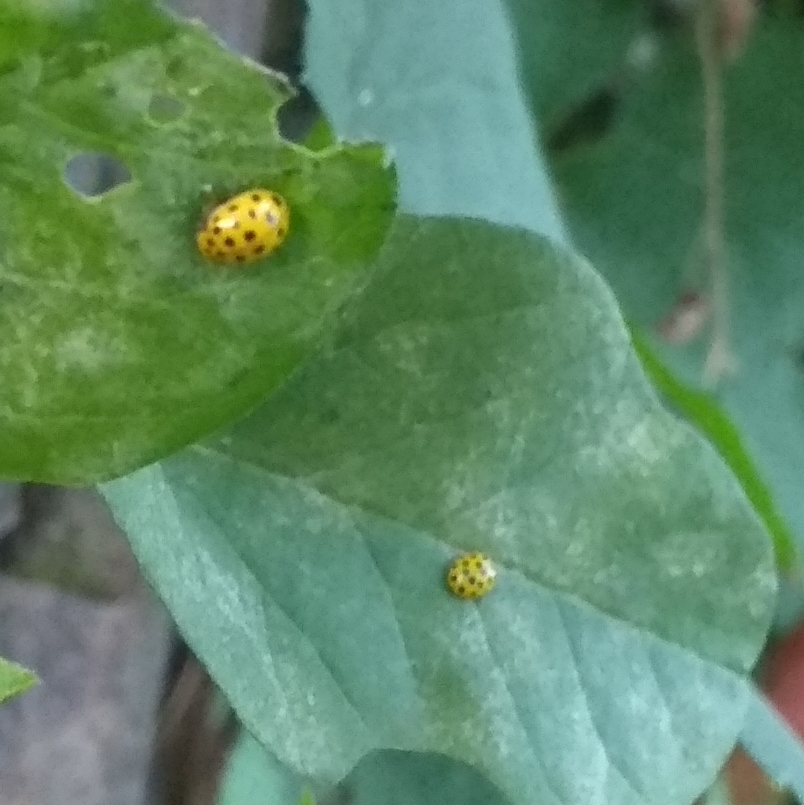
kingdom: Animalia
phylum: Arthropoda
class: Insecta
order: Coleoptera
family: Coccinellidae
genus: Psyllobora
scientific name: Psyllobora vigintiduopunctata
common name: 22-spot ladybird
